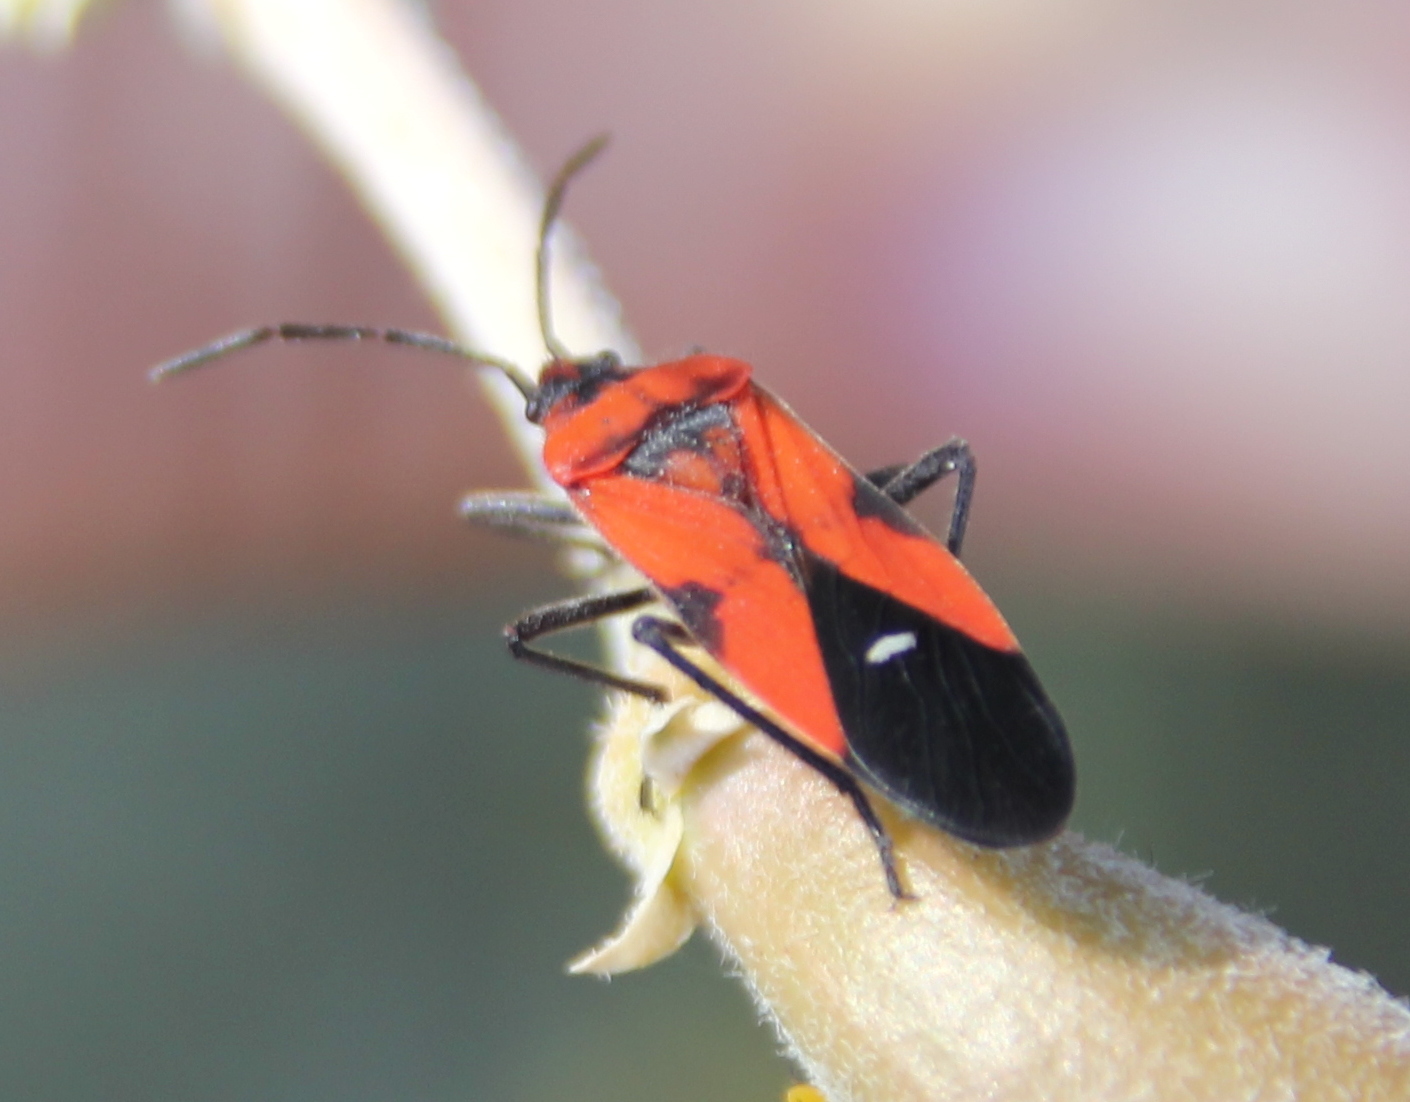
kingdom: Animalia
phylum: Arthropoda
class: Insecta
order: Hemiptera
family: Lygaeidae
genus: Oncopeltus
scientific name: Oncopeltus sanguinolentus
